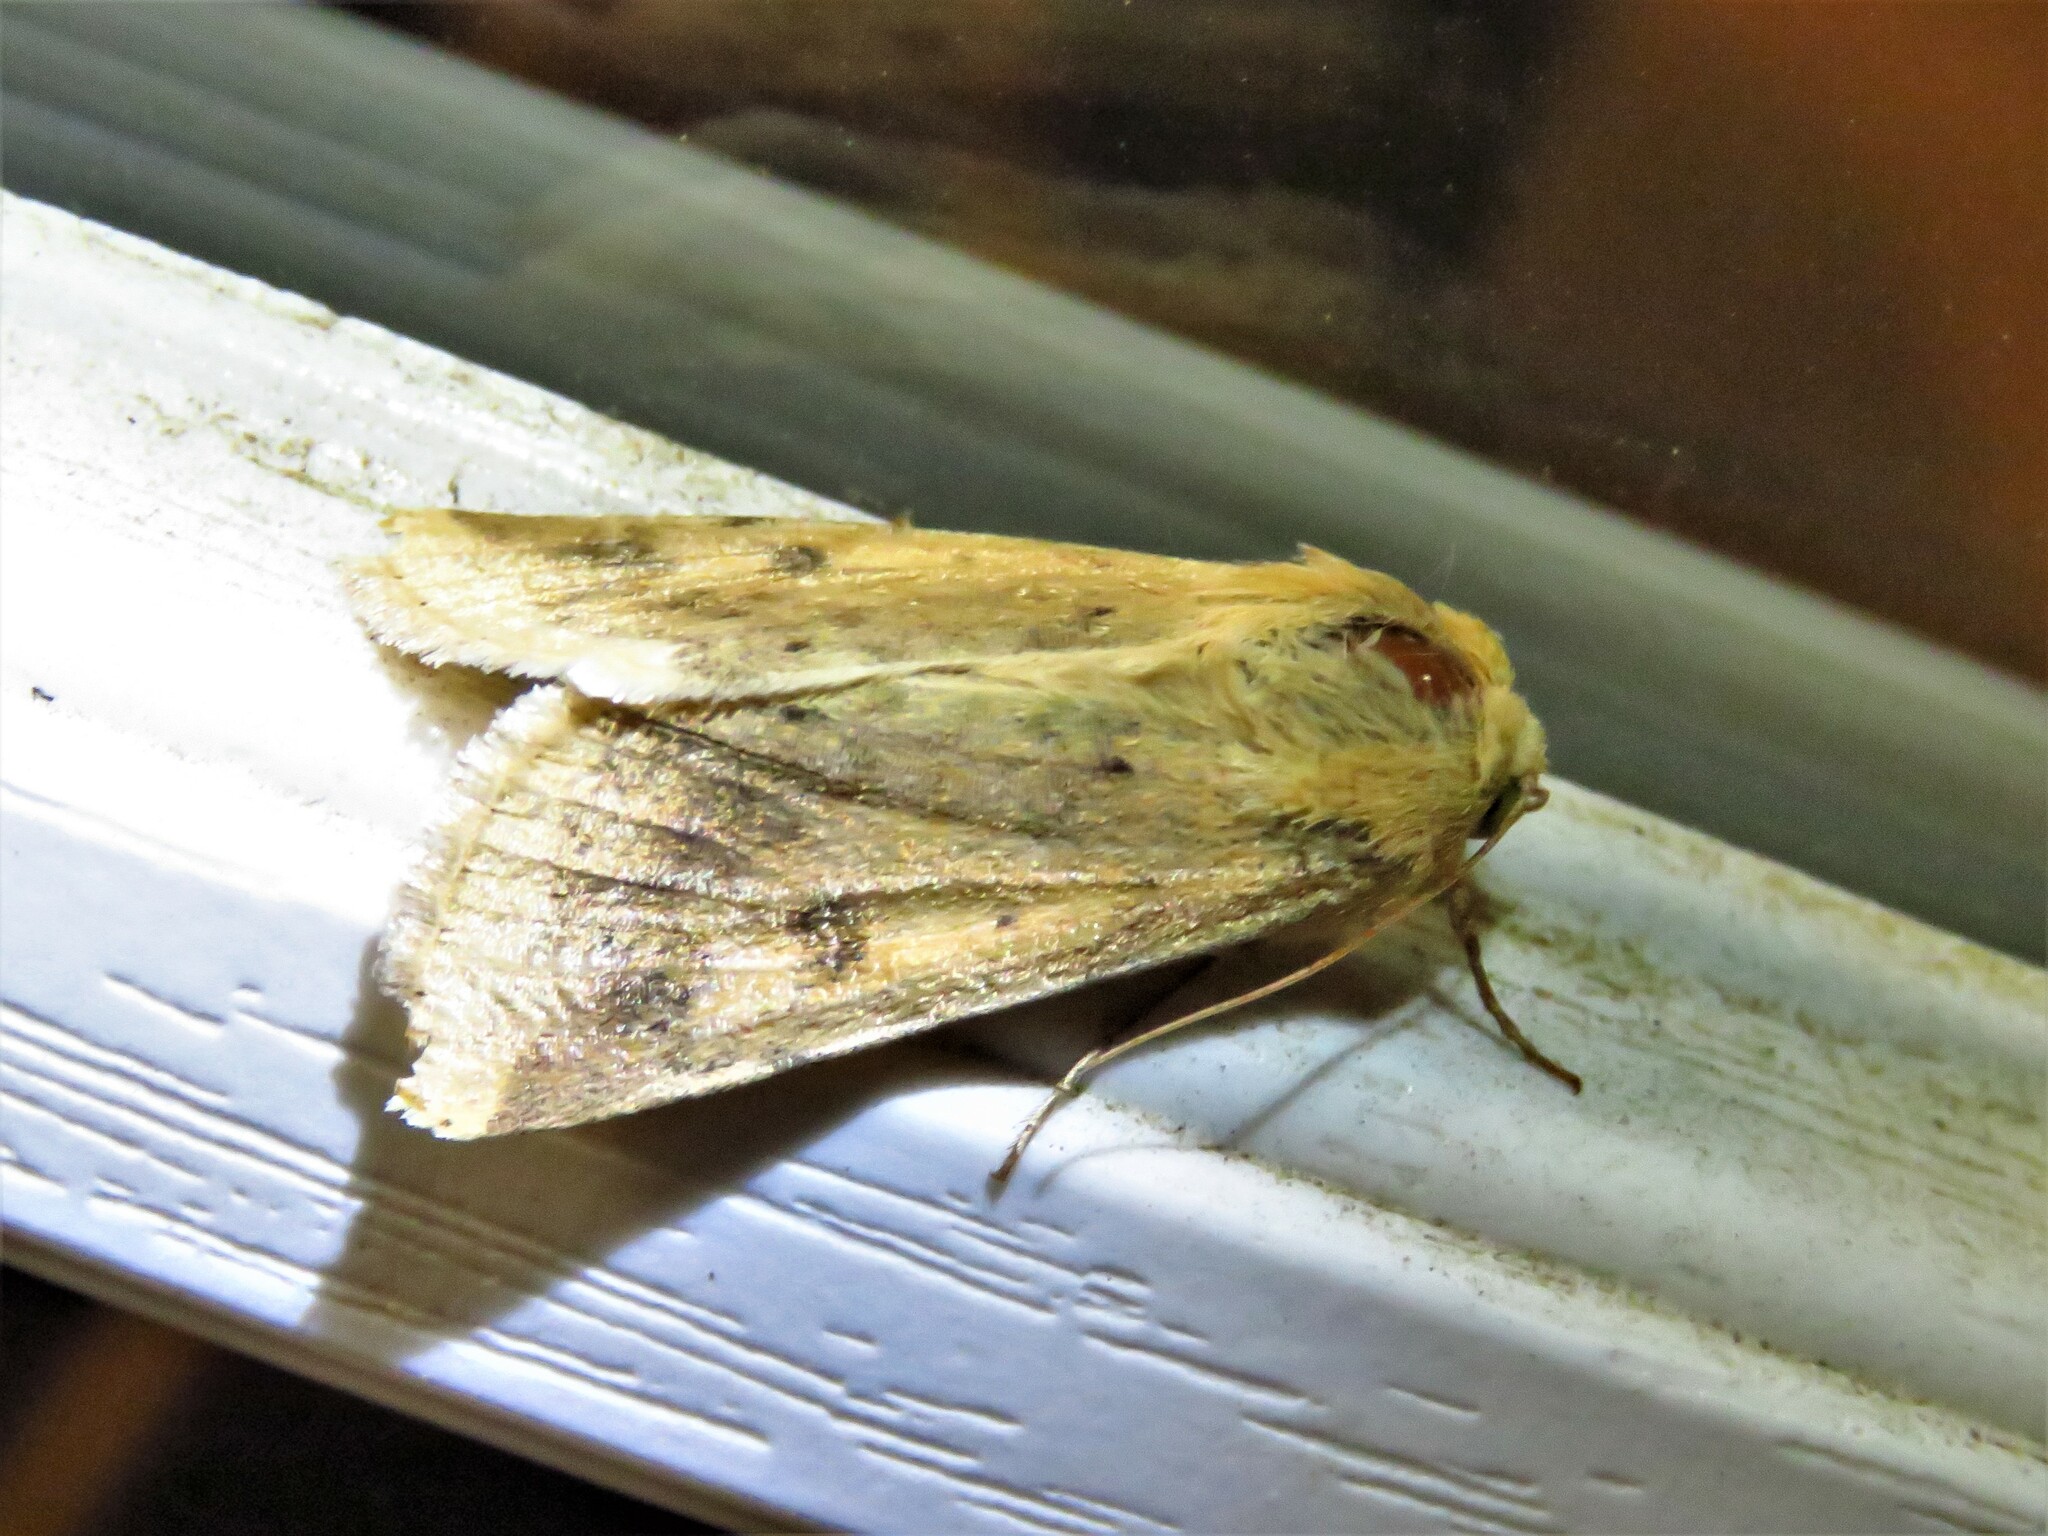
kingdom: Animalia
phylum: Arthropoda
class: Insecta
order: Lepidoptera
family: Noctuidae
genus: Helicoverpa
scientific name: Helicoverpa zea
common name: Bollworm
